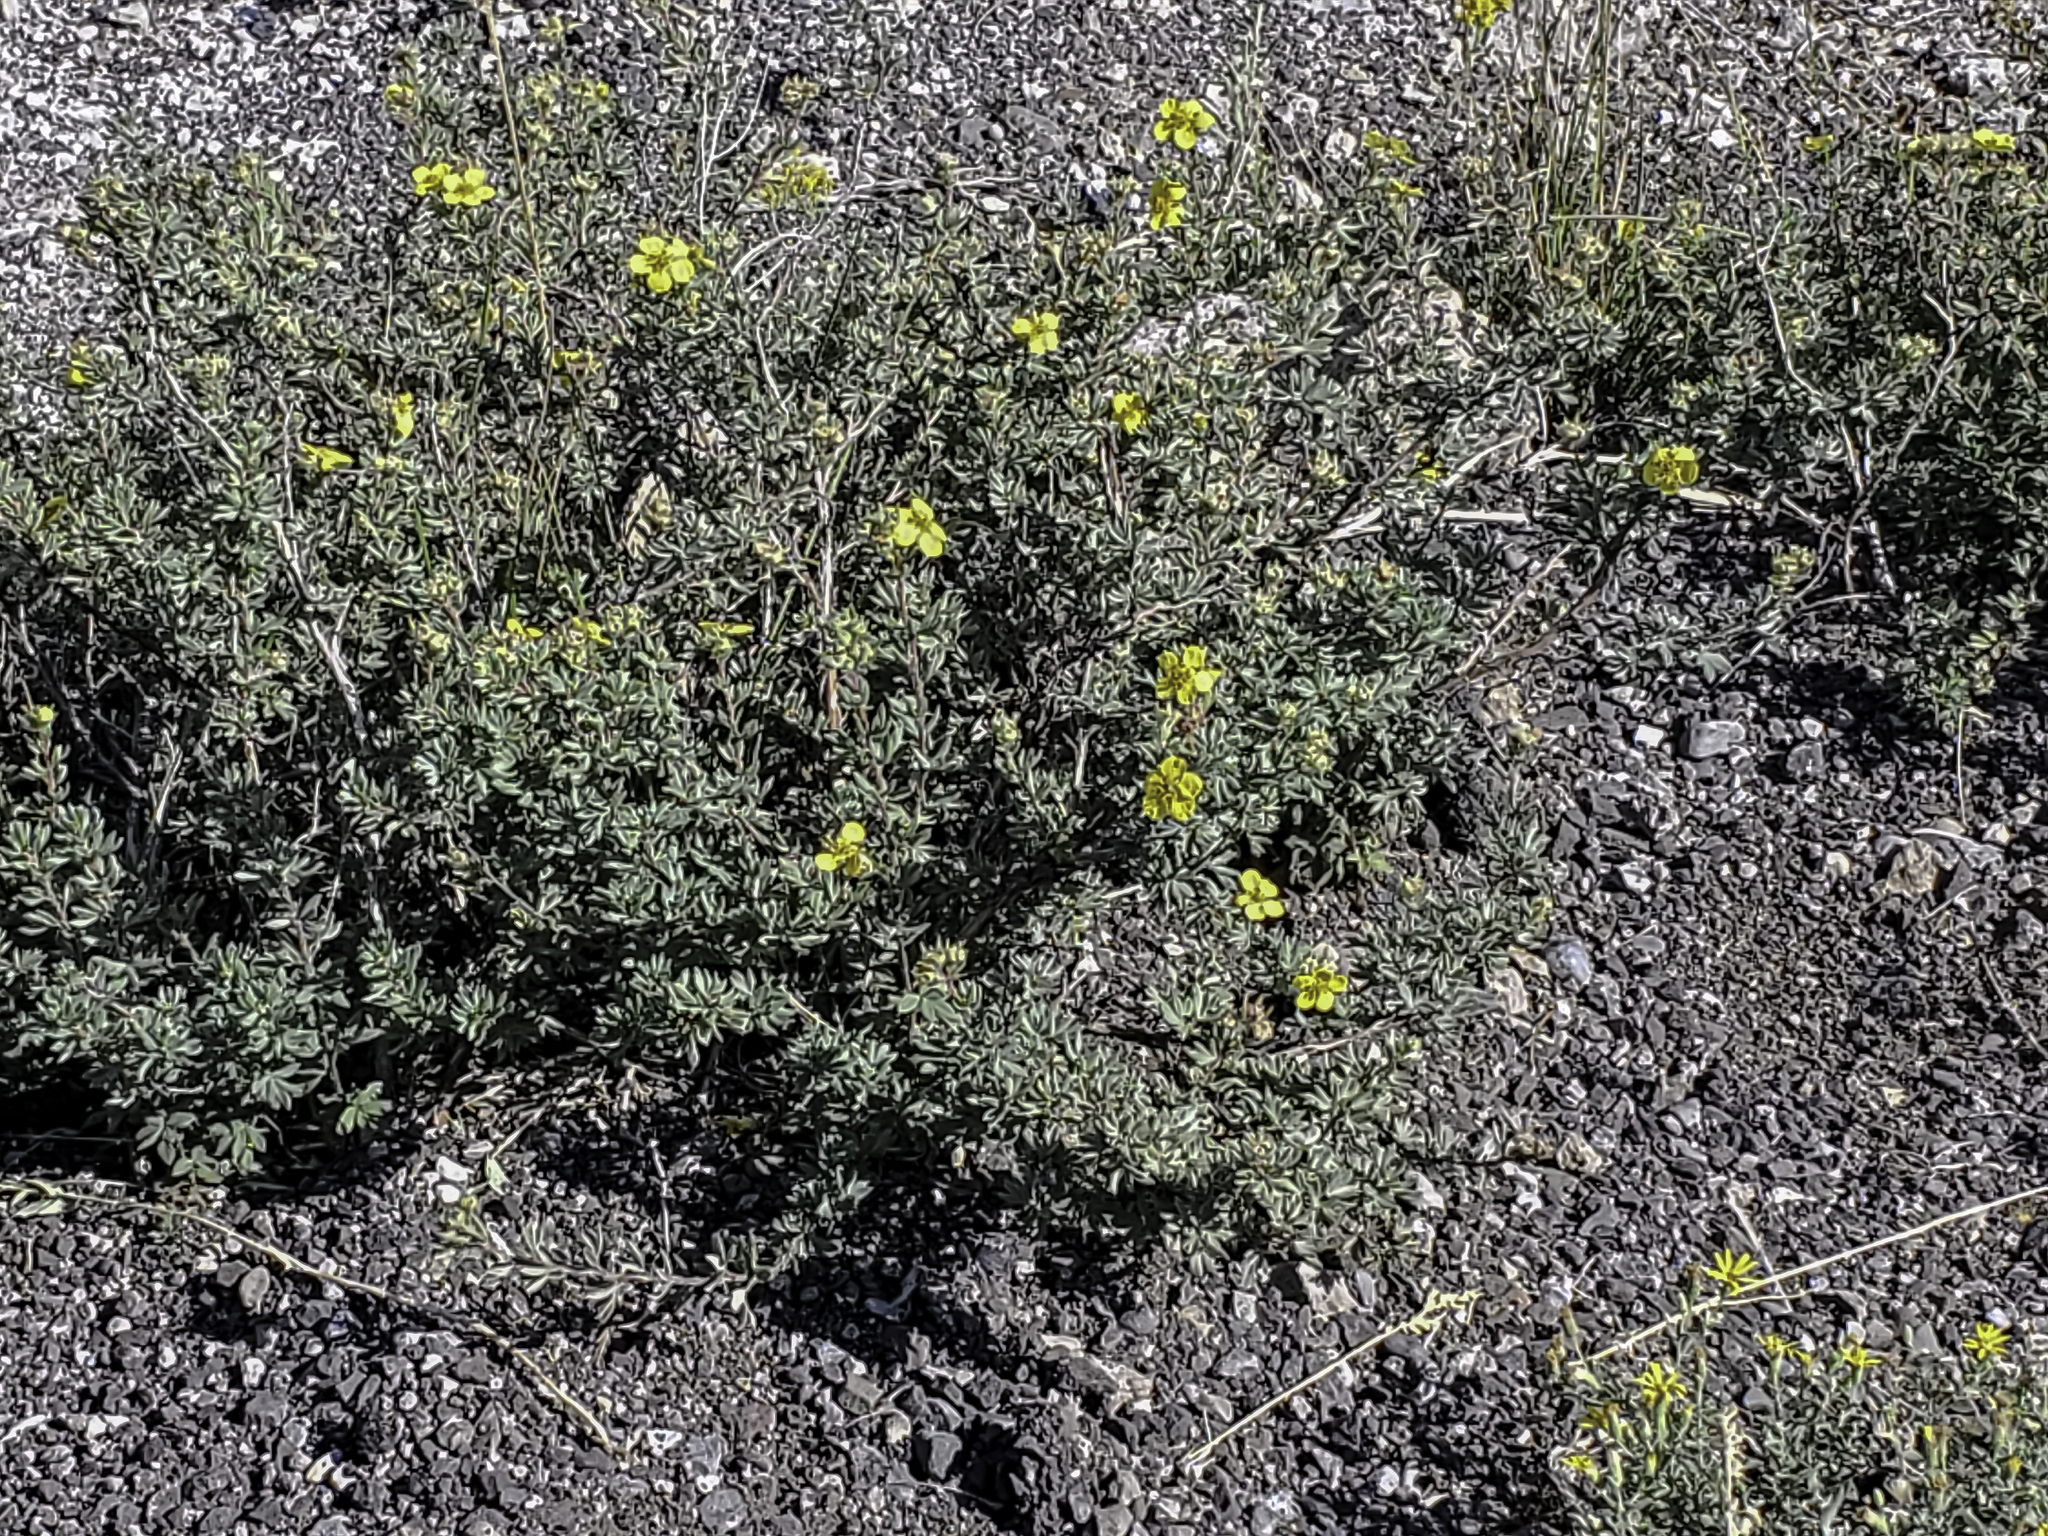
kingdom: Plantae
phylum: Tracheophyta
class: Magnoliopsida
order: Rosales
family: Rosaceae
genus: Dasiphora
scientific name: Dasiphora fruticosa
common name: Shrubby cinquefoil
